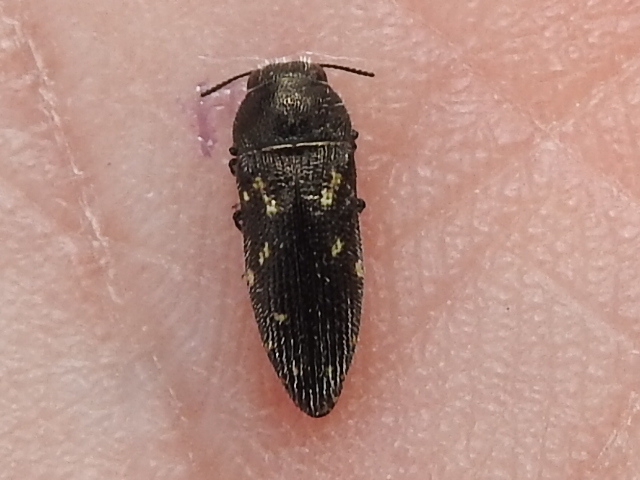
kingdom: Animalia
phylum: Arthropoda
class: Insecta
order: Coleoptera
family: Buprestidae
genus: Acmaeodera
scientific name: Acmaeodera tubulus
